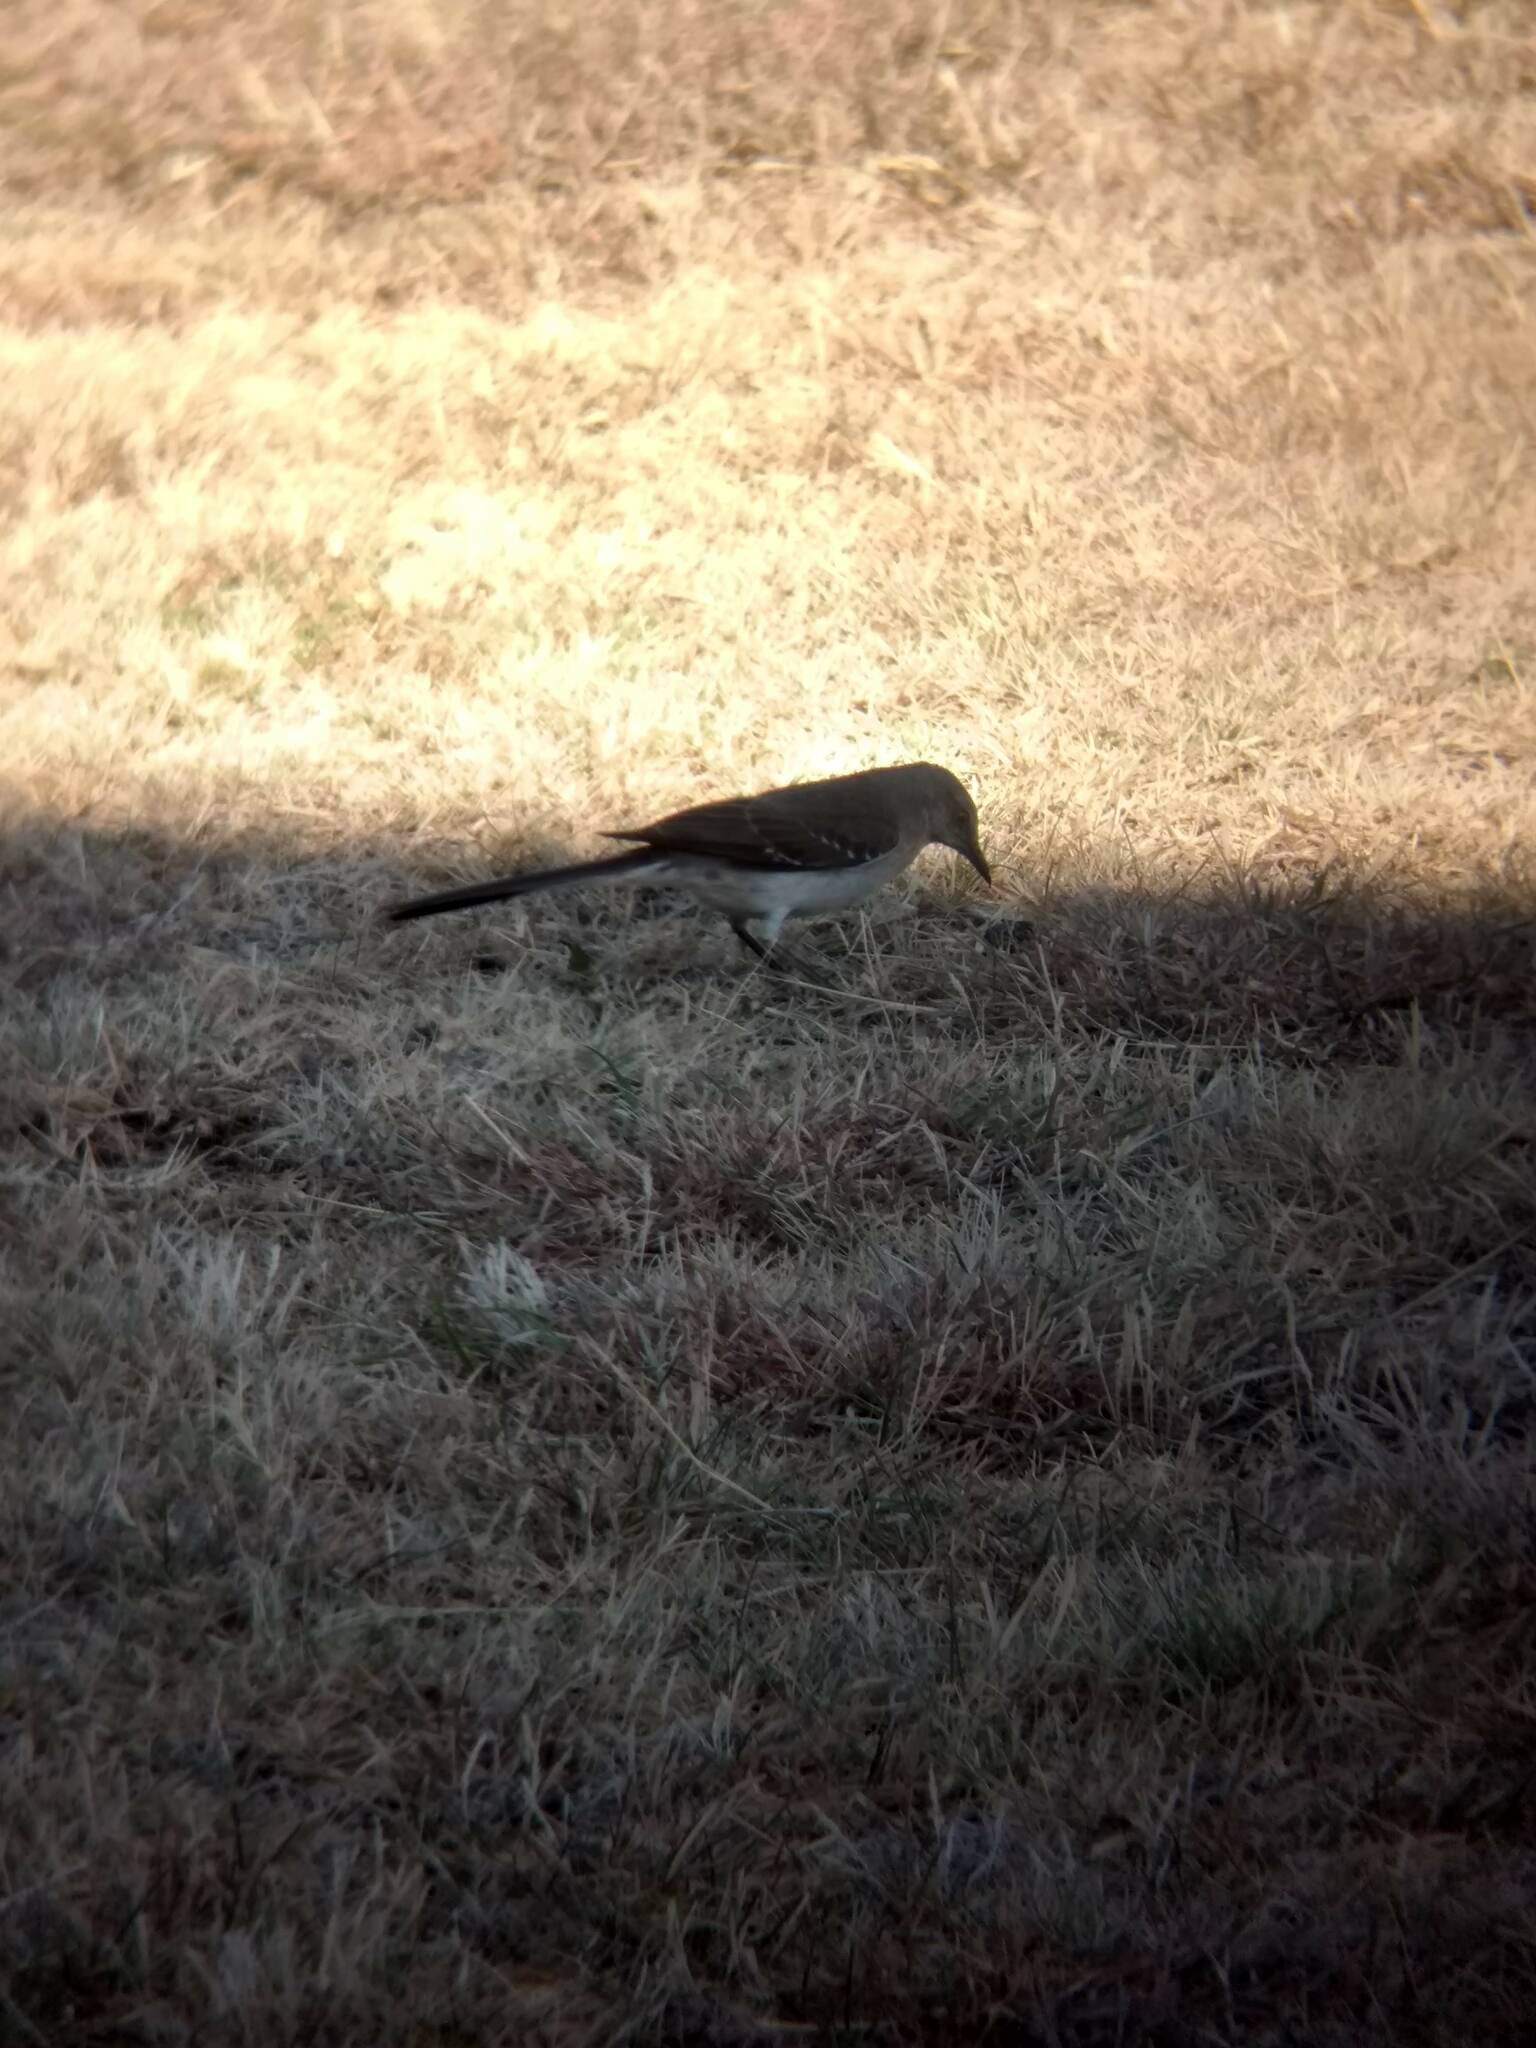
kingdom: Animalia
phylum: Chordata
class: Aves
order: Passeriformes
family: Mimidae
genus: Mimus
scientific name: Mimus polyglottos
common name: Northern mockingbird
